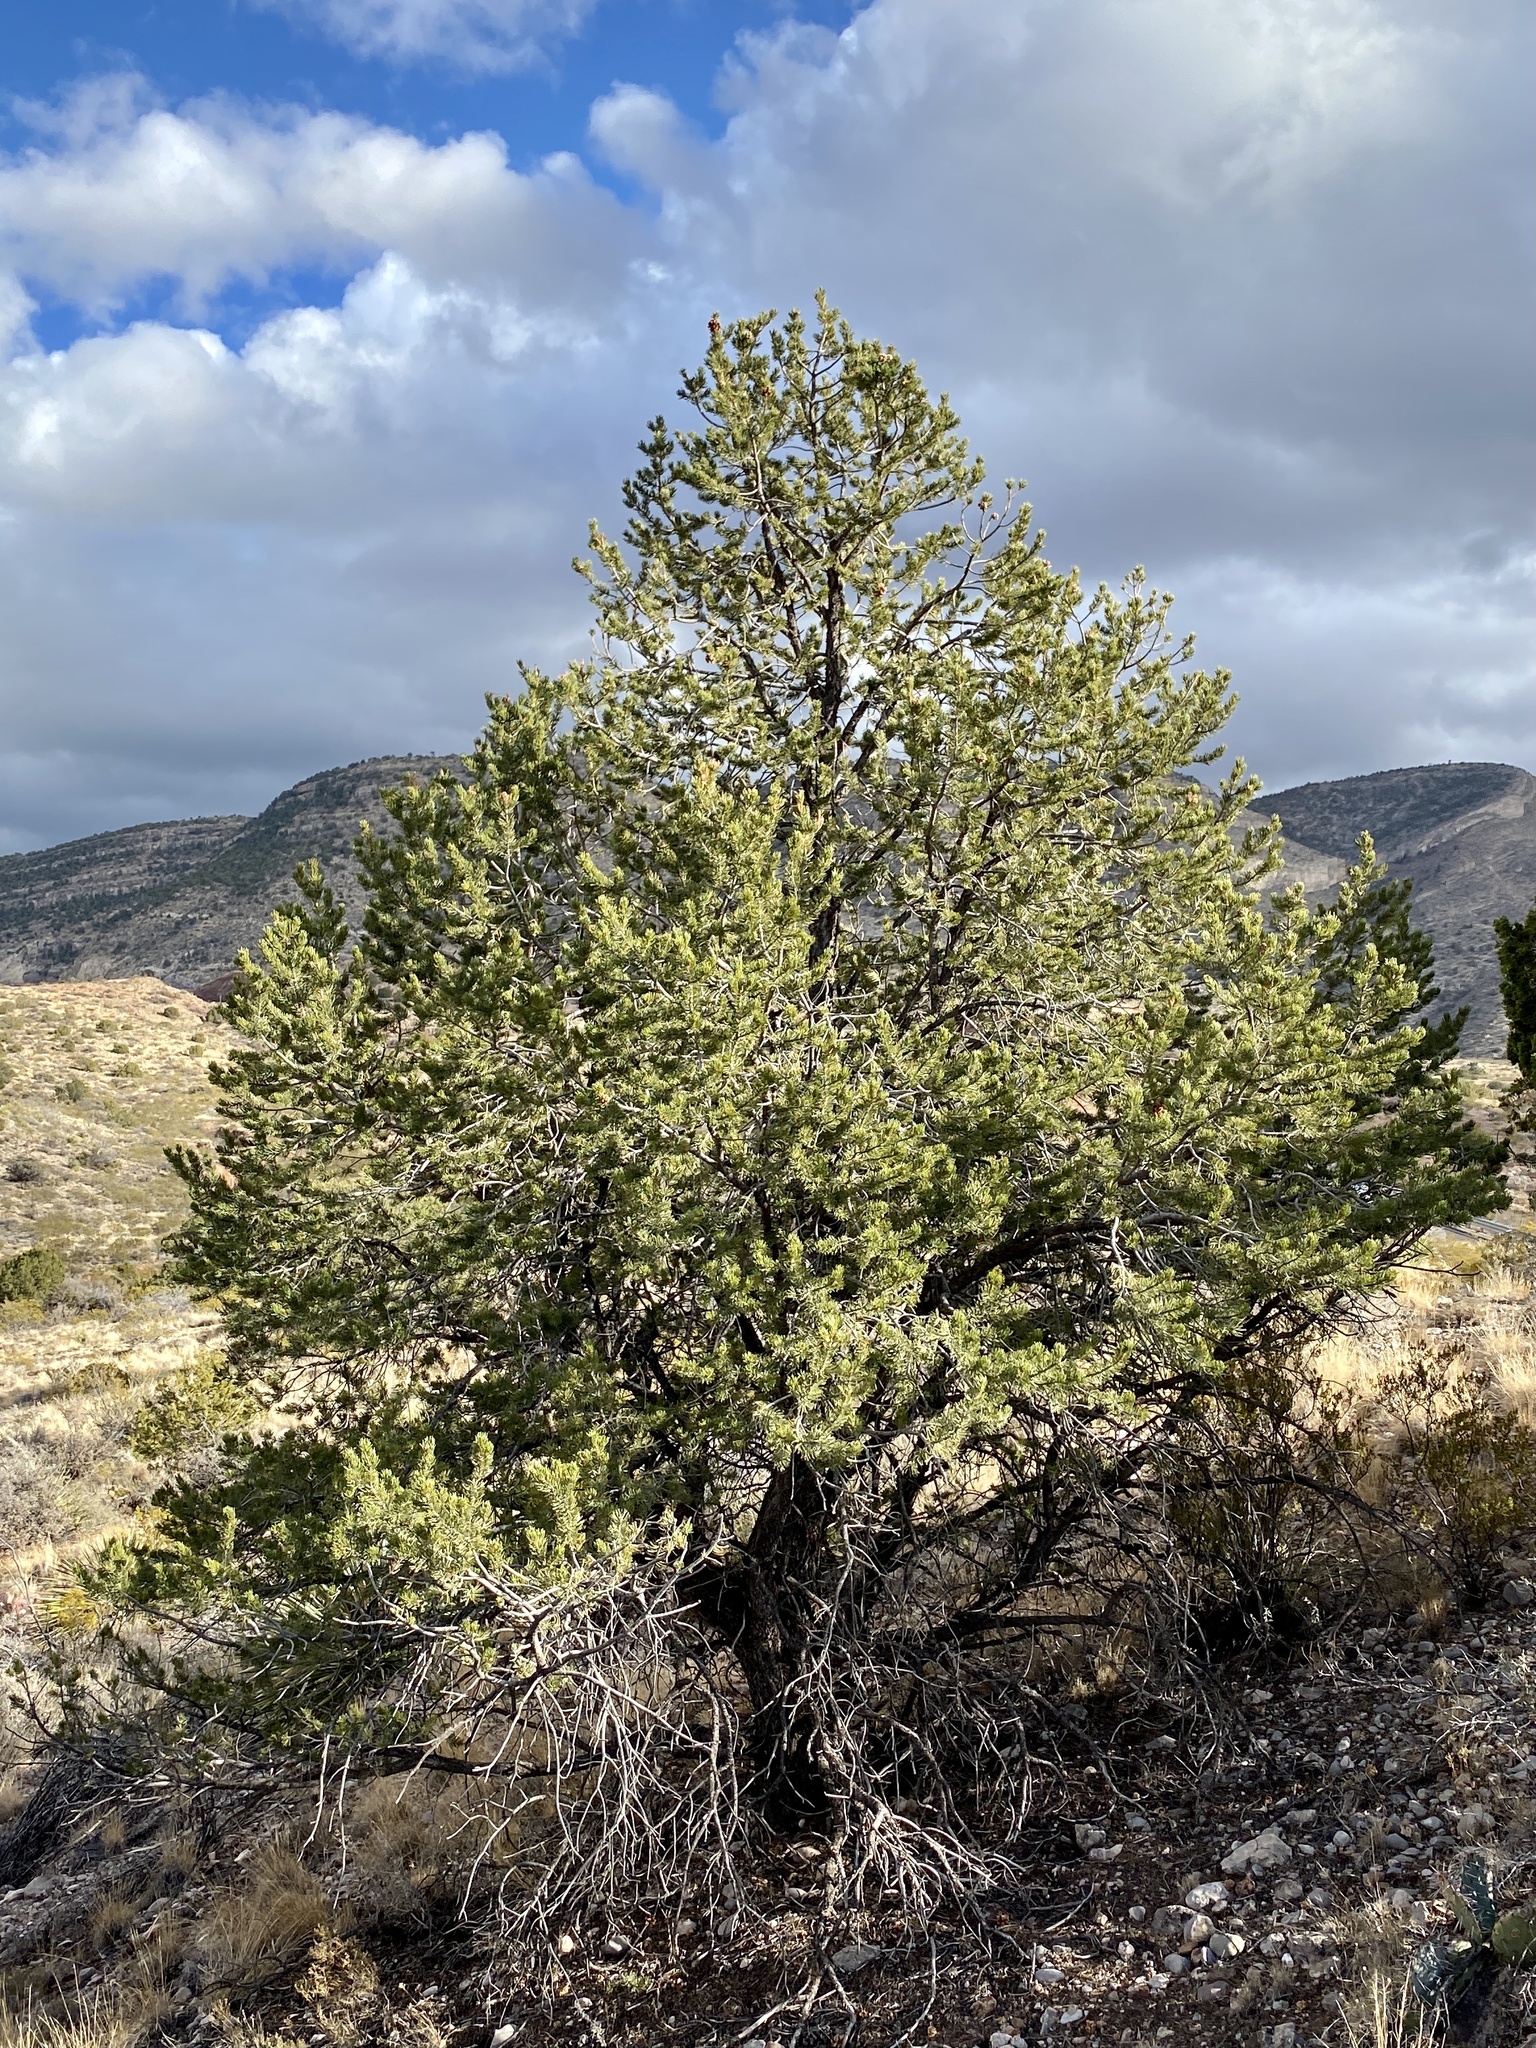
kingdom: Plantae
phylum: Tracheophyta
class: Pinopsida
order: Pinales
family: Pinaceae
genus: Pinus
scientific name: Pinus edulis
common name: Colorado pinyon
